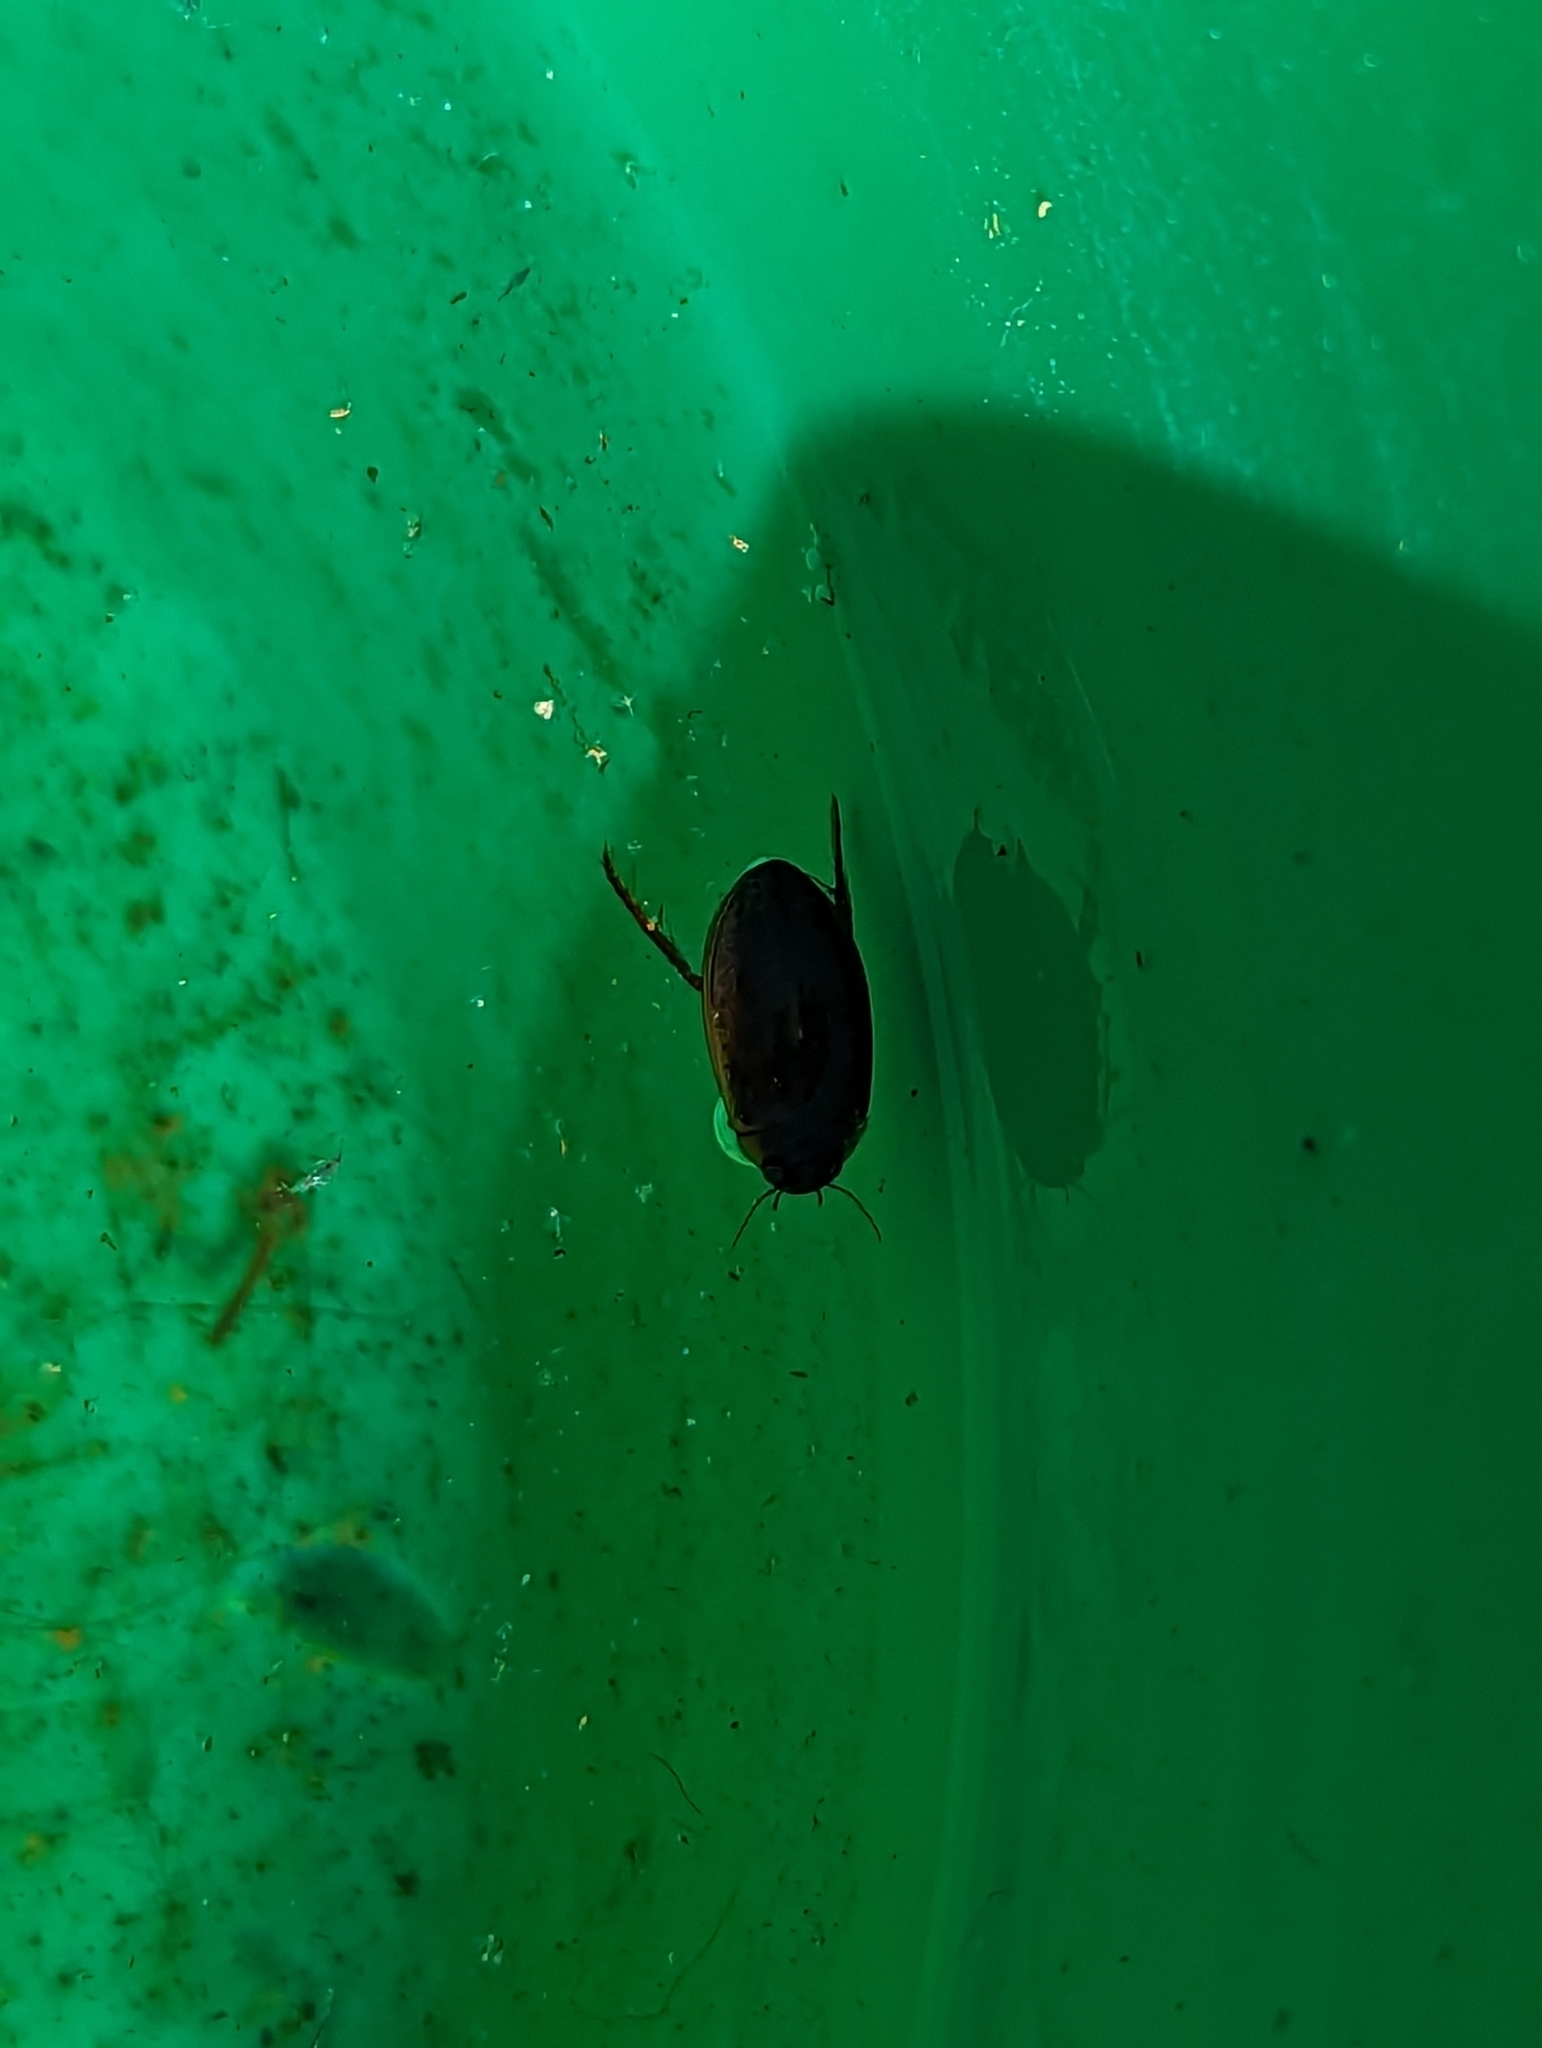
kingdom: Animalia
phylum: Arthropoda
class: Insecta
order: Coleoptera
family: Dytiscidae
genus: Rhantus
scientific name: Rhantus
